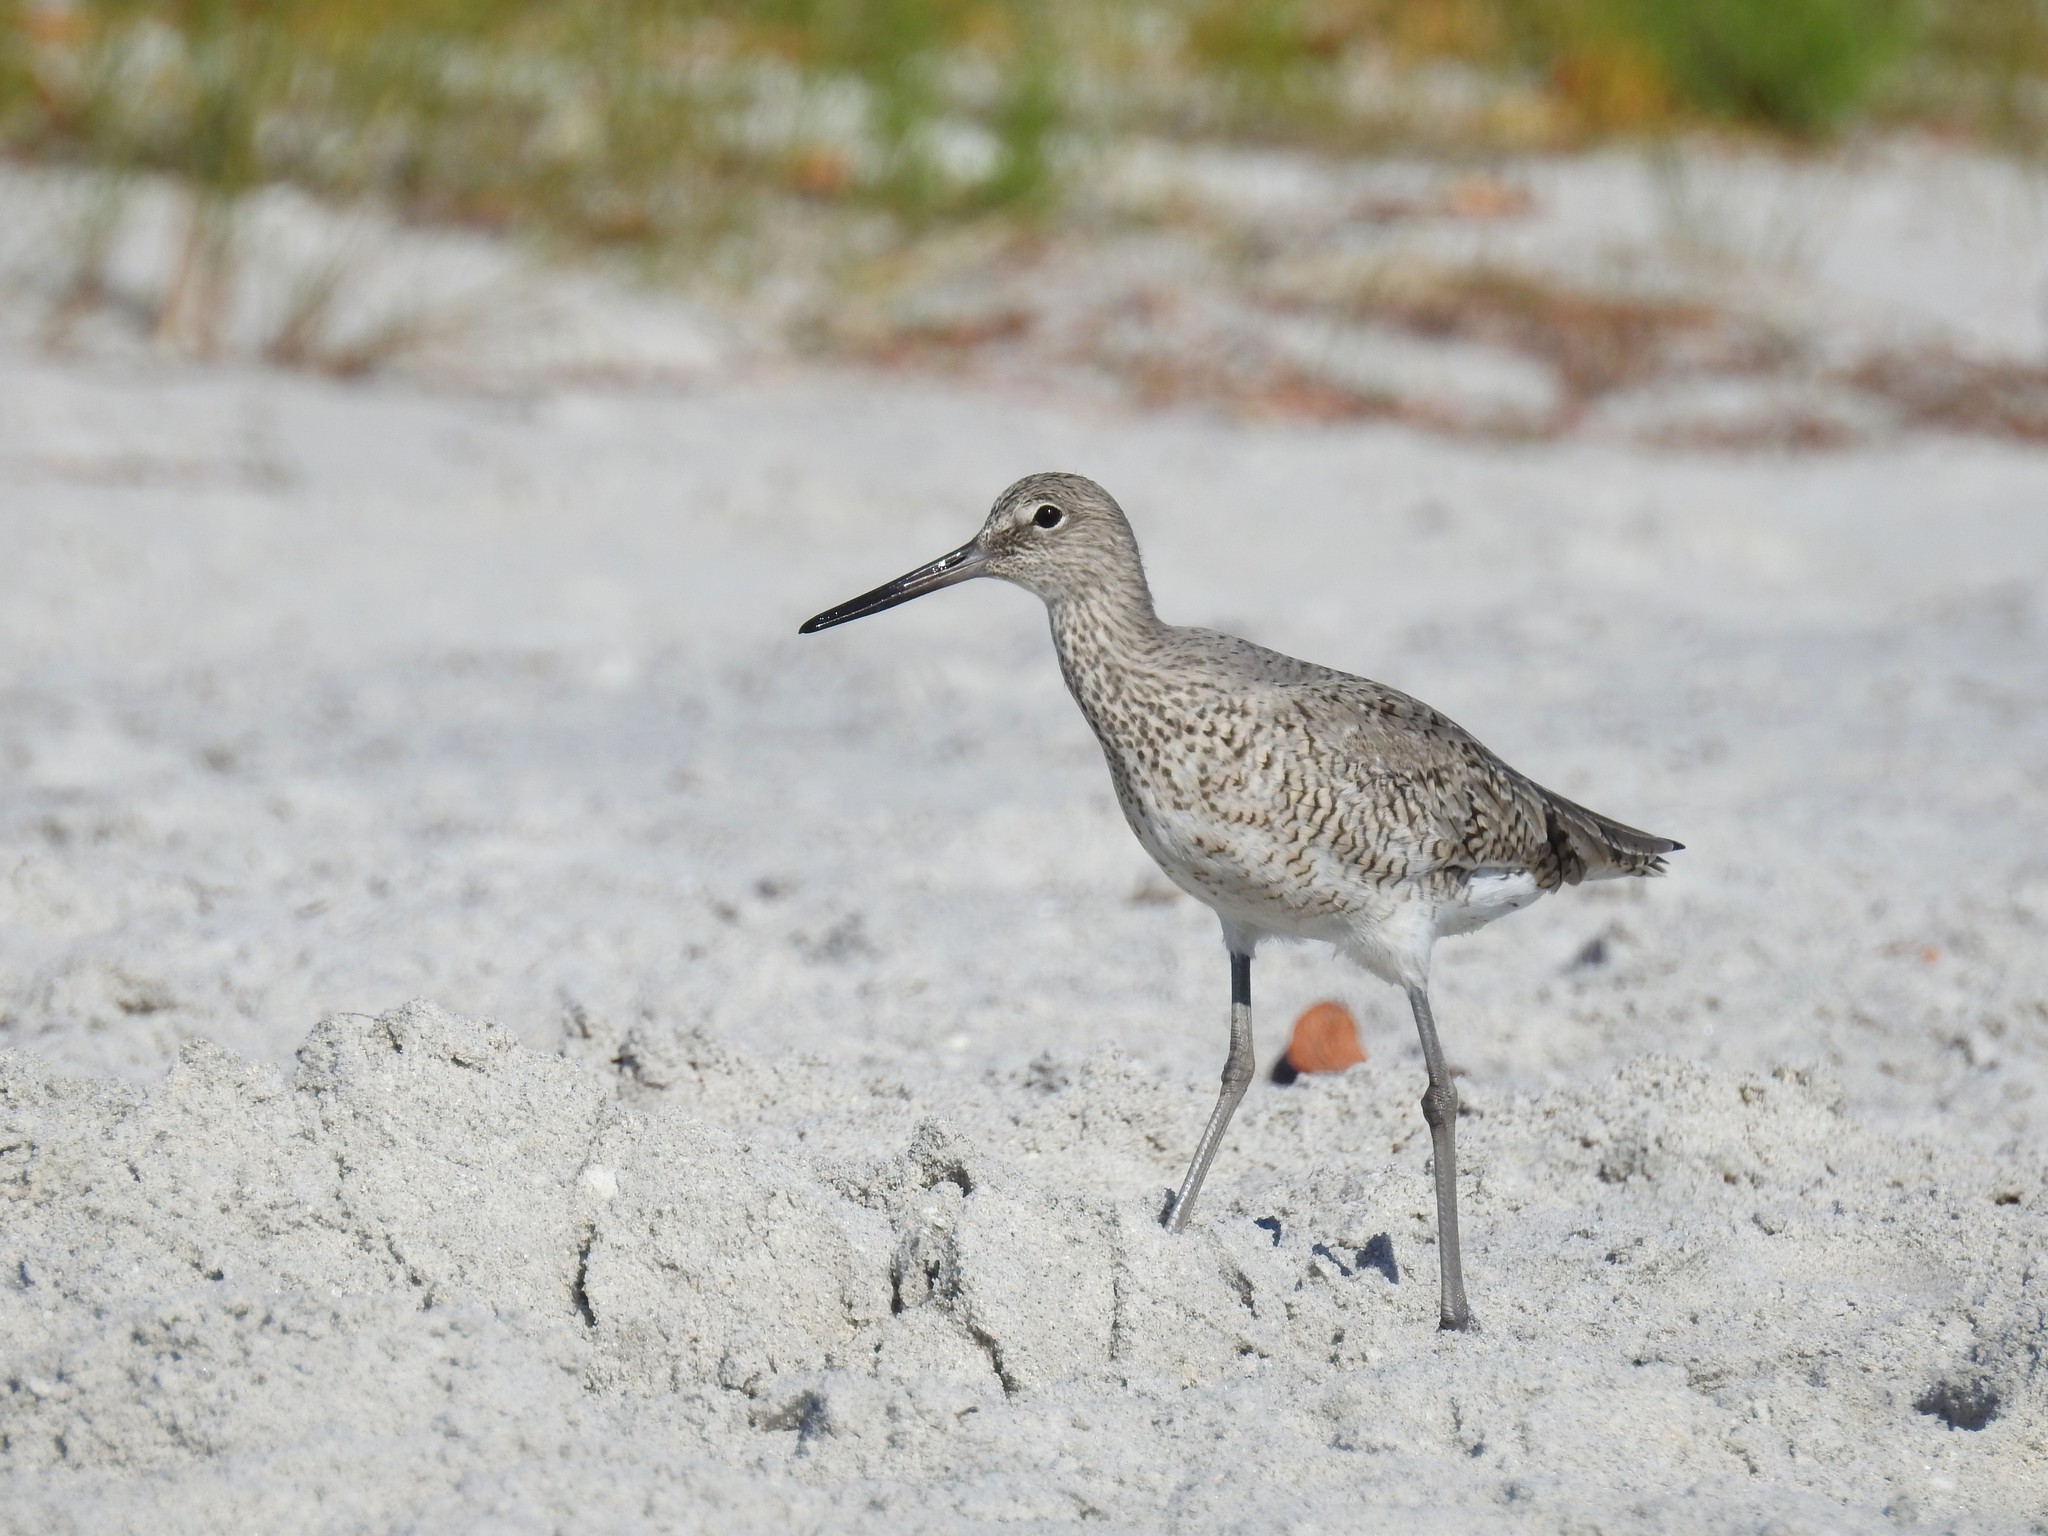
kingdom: Animalia
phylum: Chordata
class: Aves
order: Charadriiformes
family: Scolopacidae
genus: Tringa
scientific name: Tringa semipalmata
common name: Willet
